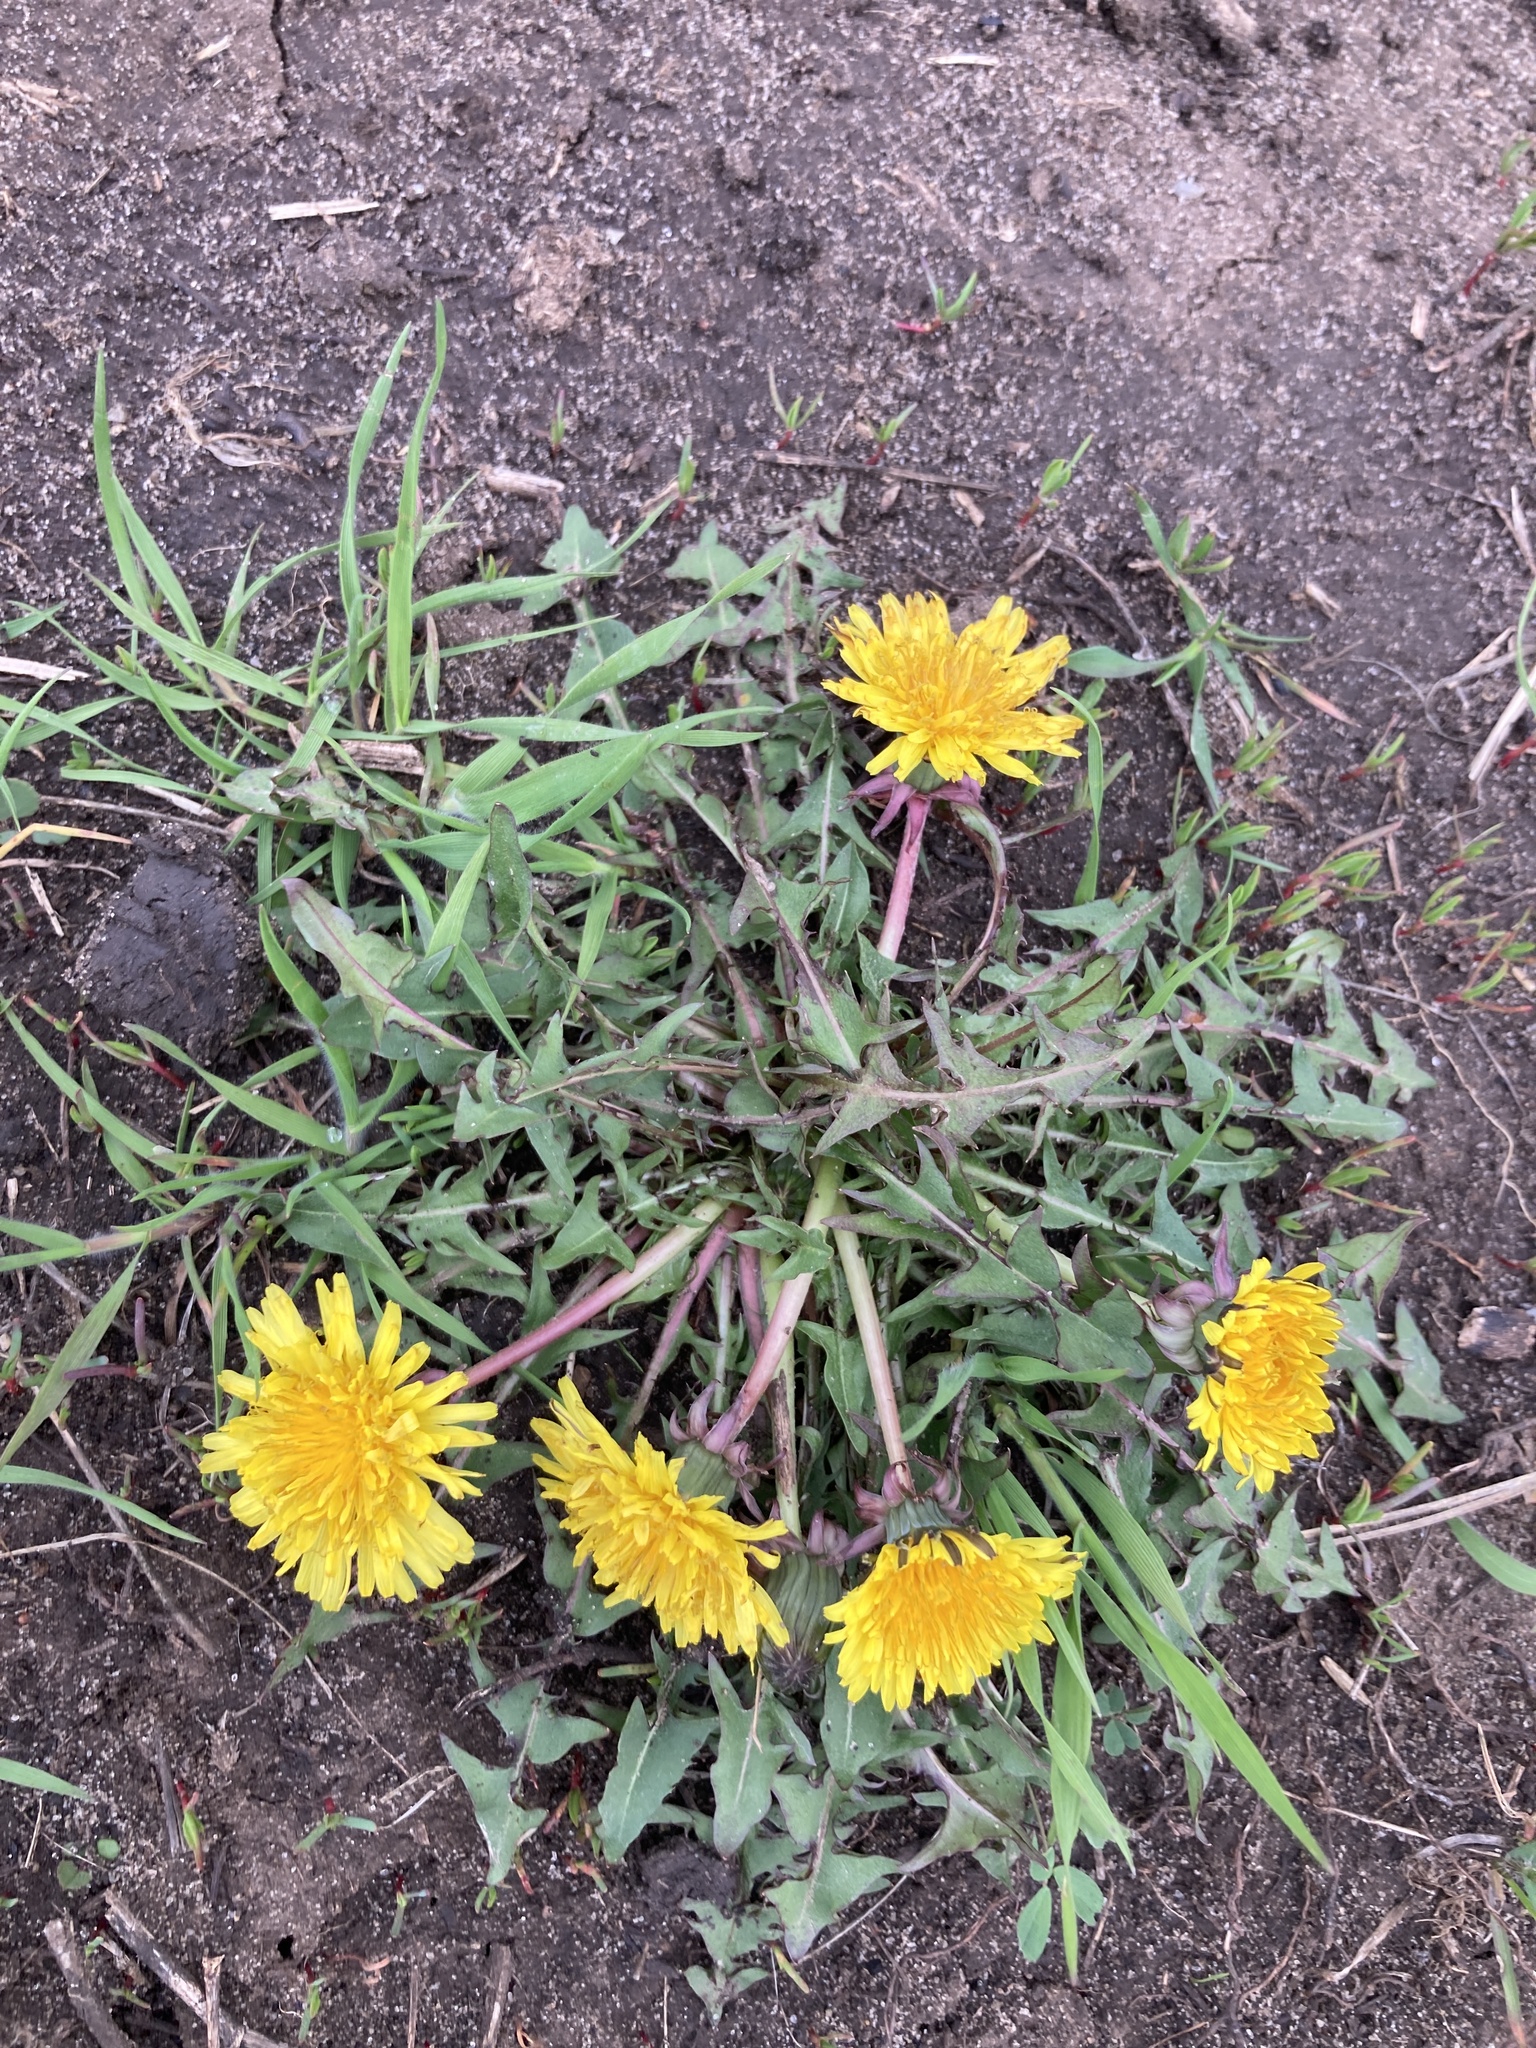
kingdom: Plantae
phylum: Tracheophyta
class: Magnoliopsida
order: Asterales
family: Asteraceae
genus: Taraxacum
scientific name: Taraxacum officinale
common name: Common dandelion
